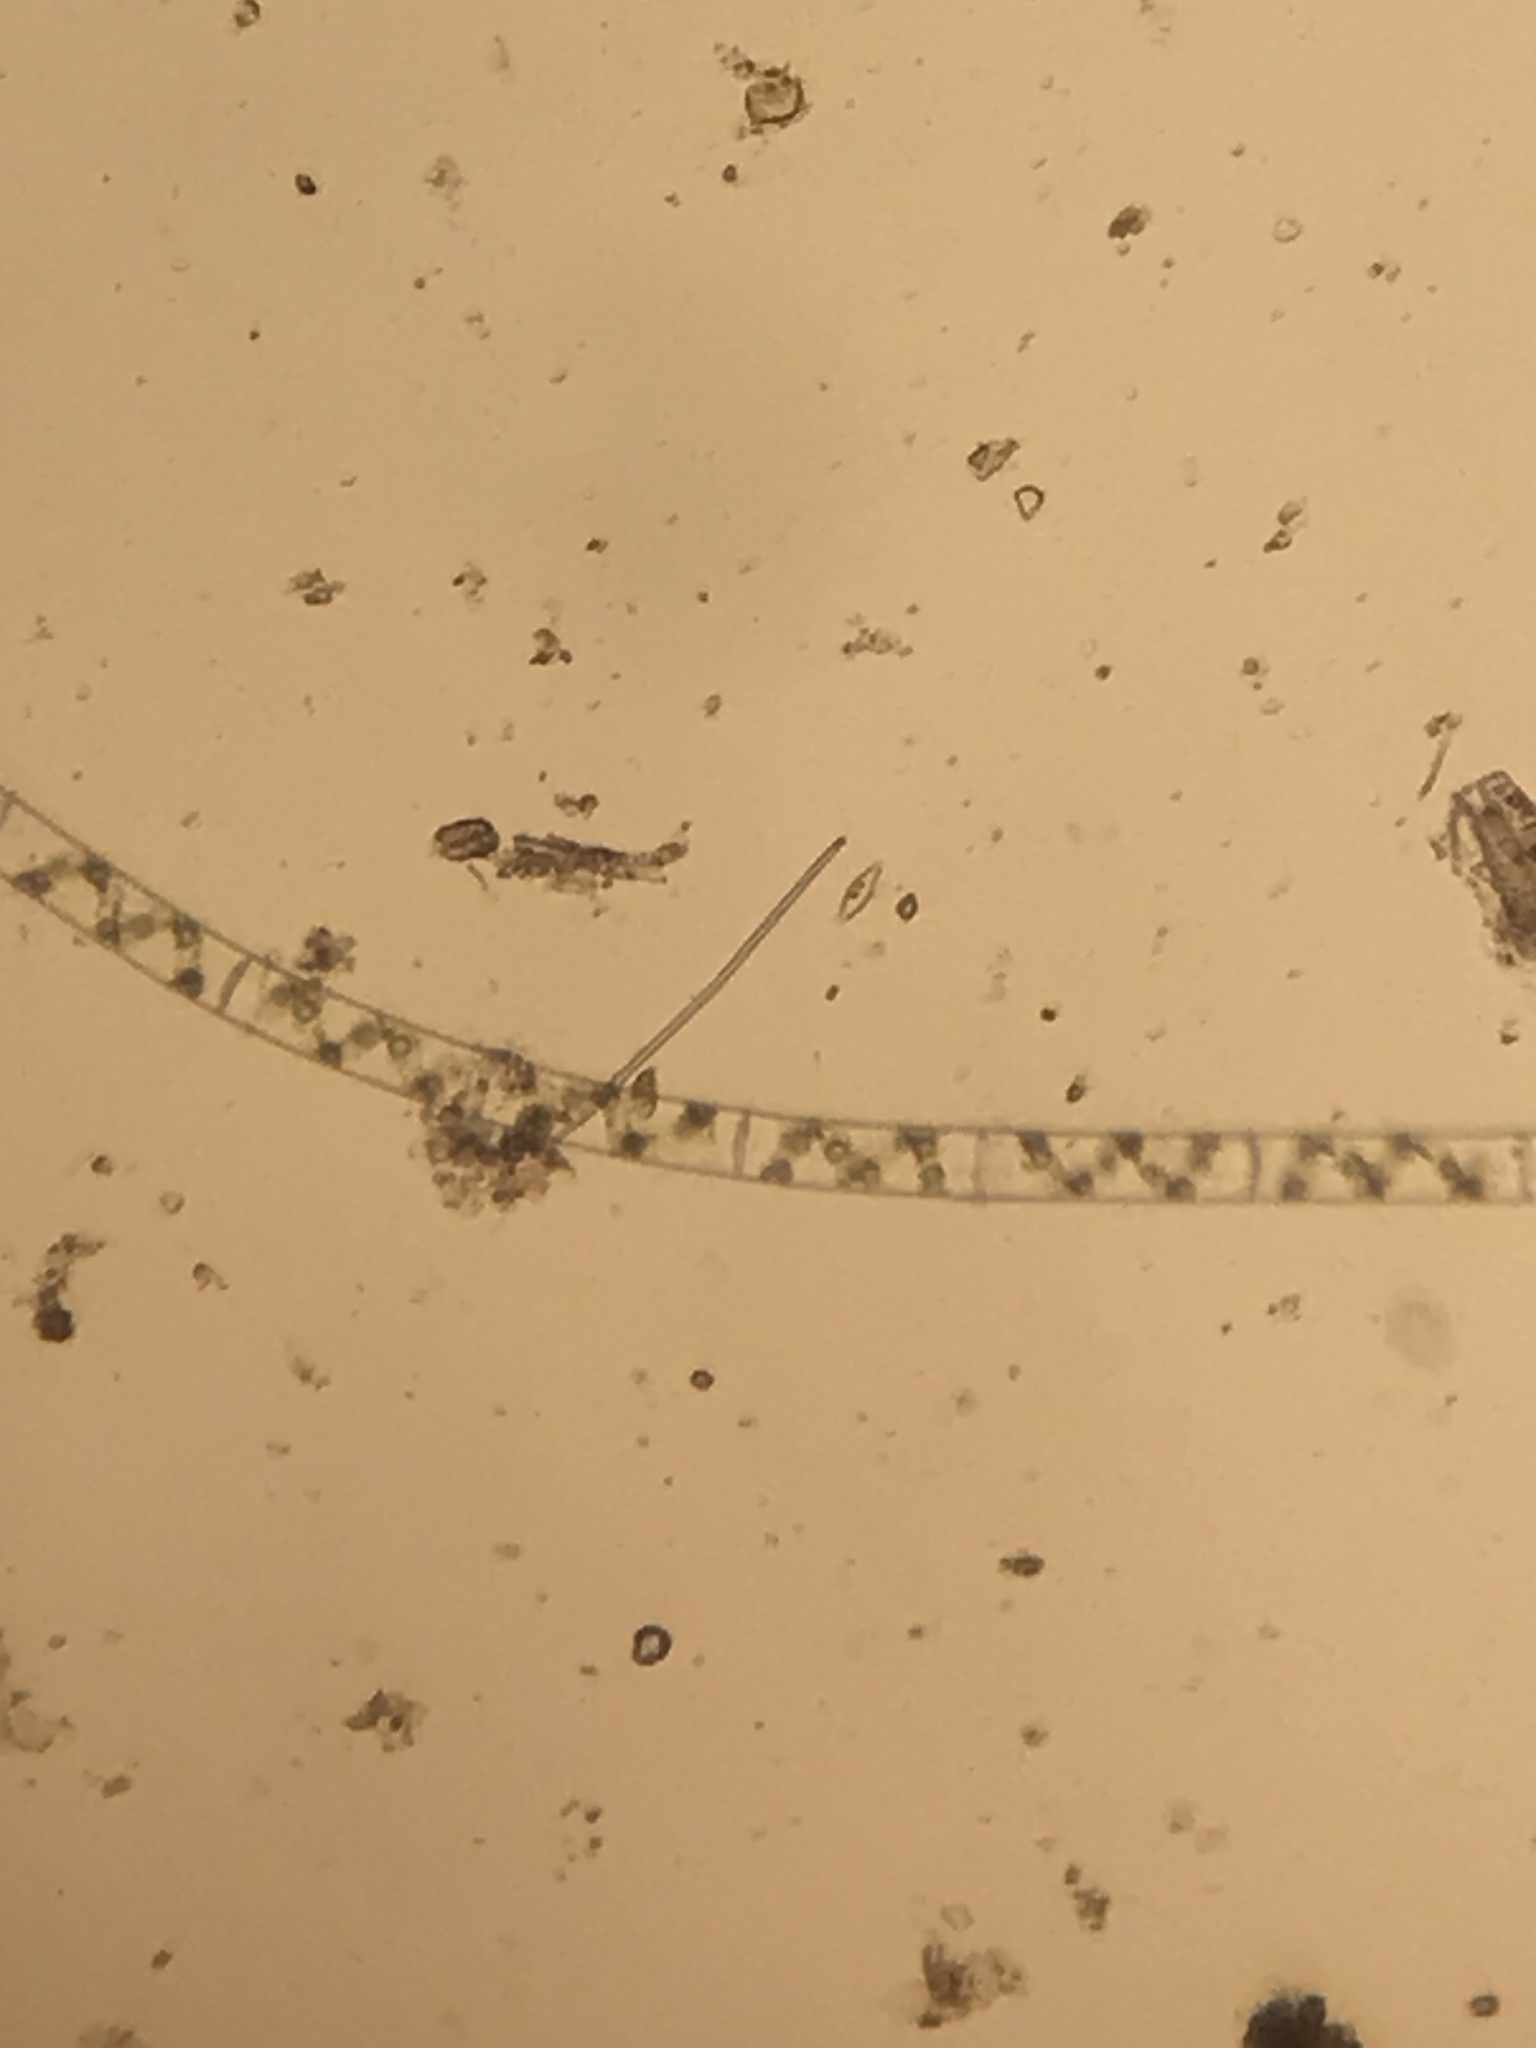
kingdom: Plantae
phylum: Charophyta
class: Zygnematophyceae
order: Zygnematales
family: Zygnemataceae
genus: Spirogyra
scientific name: Spirogyra
